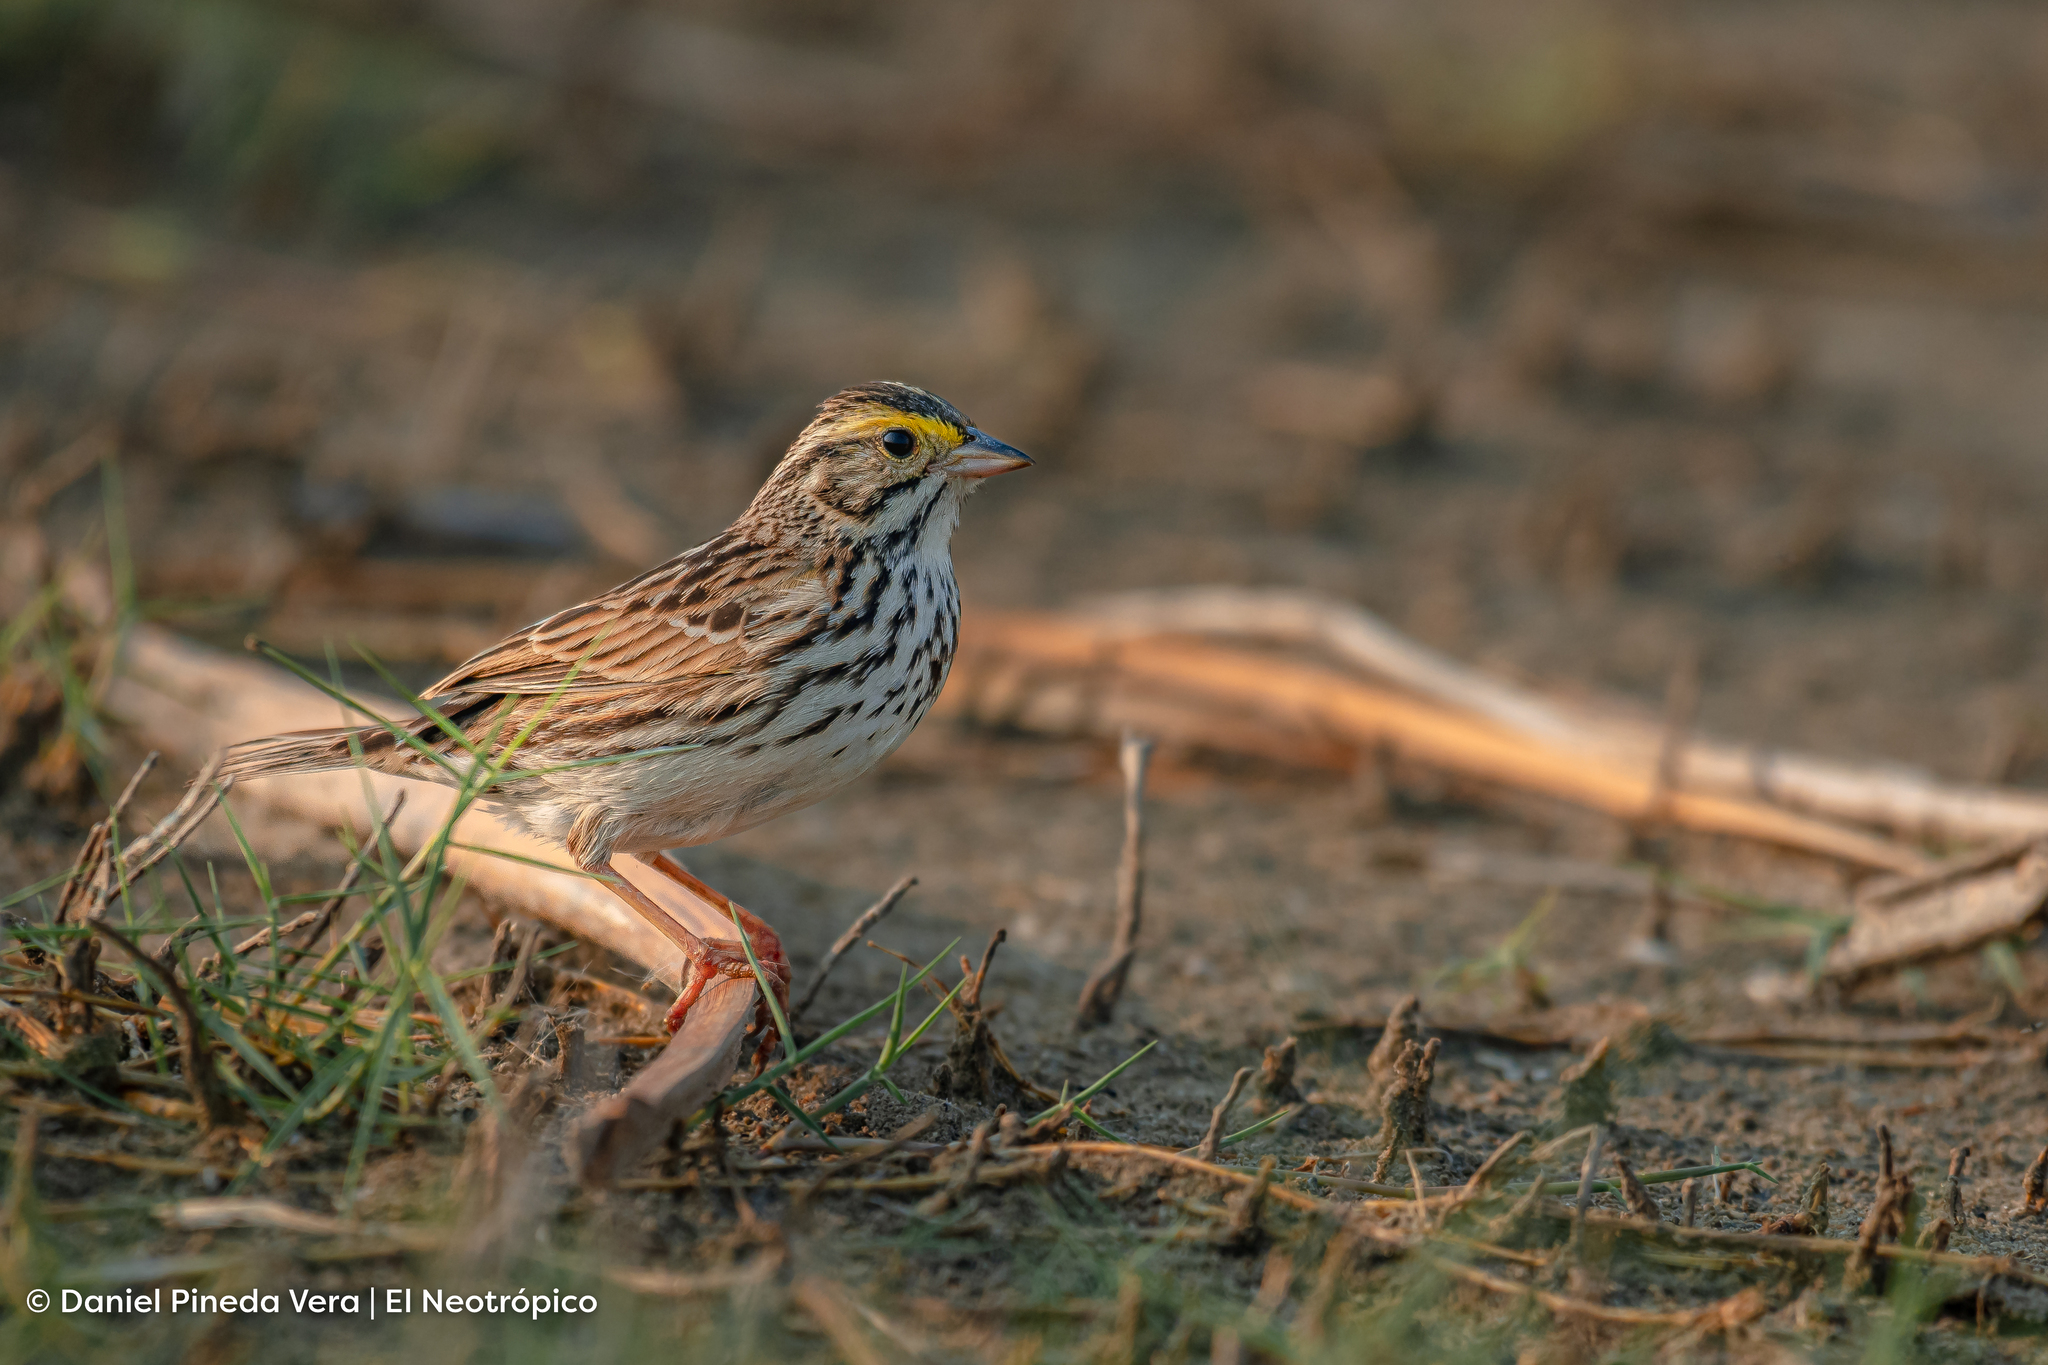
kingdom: Animalia
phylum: Chordata
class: Aves
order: Passeriformes
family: Passerellidae
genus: Passerculus
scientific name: Passerculus sandwichensis
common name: Savannah sparrow
